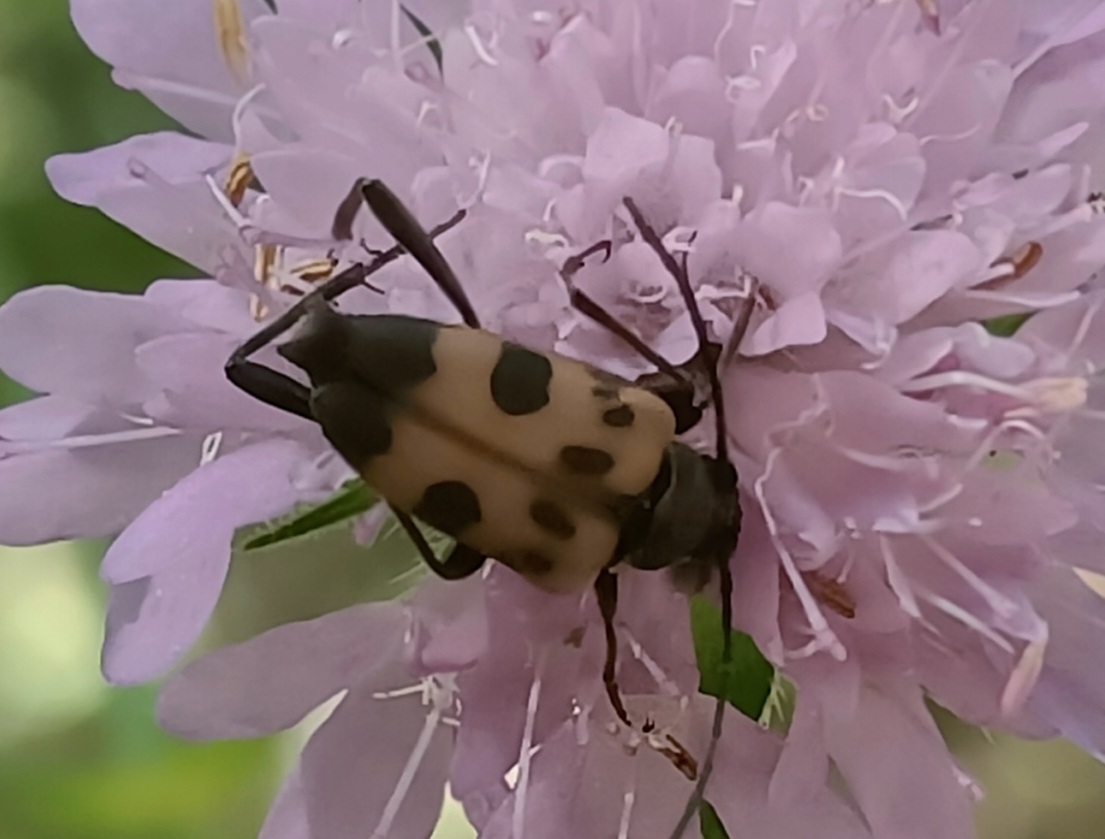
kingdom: Animalia
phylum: Arthropoda
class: Insecta
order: Coleoptera
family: Cerambycidae
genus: Pachytodes
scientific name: Pachytodes cerambyciformis
